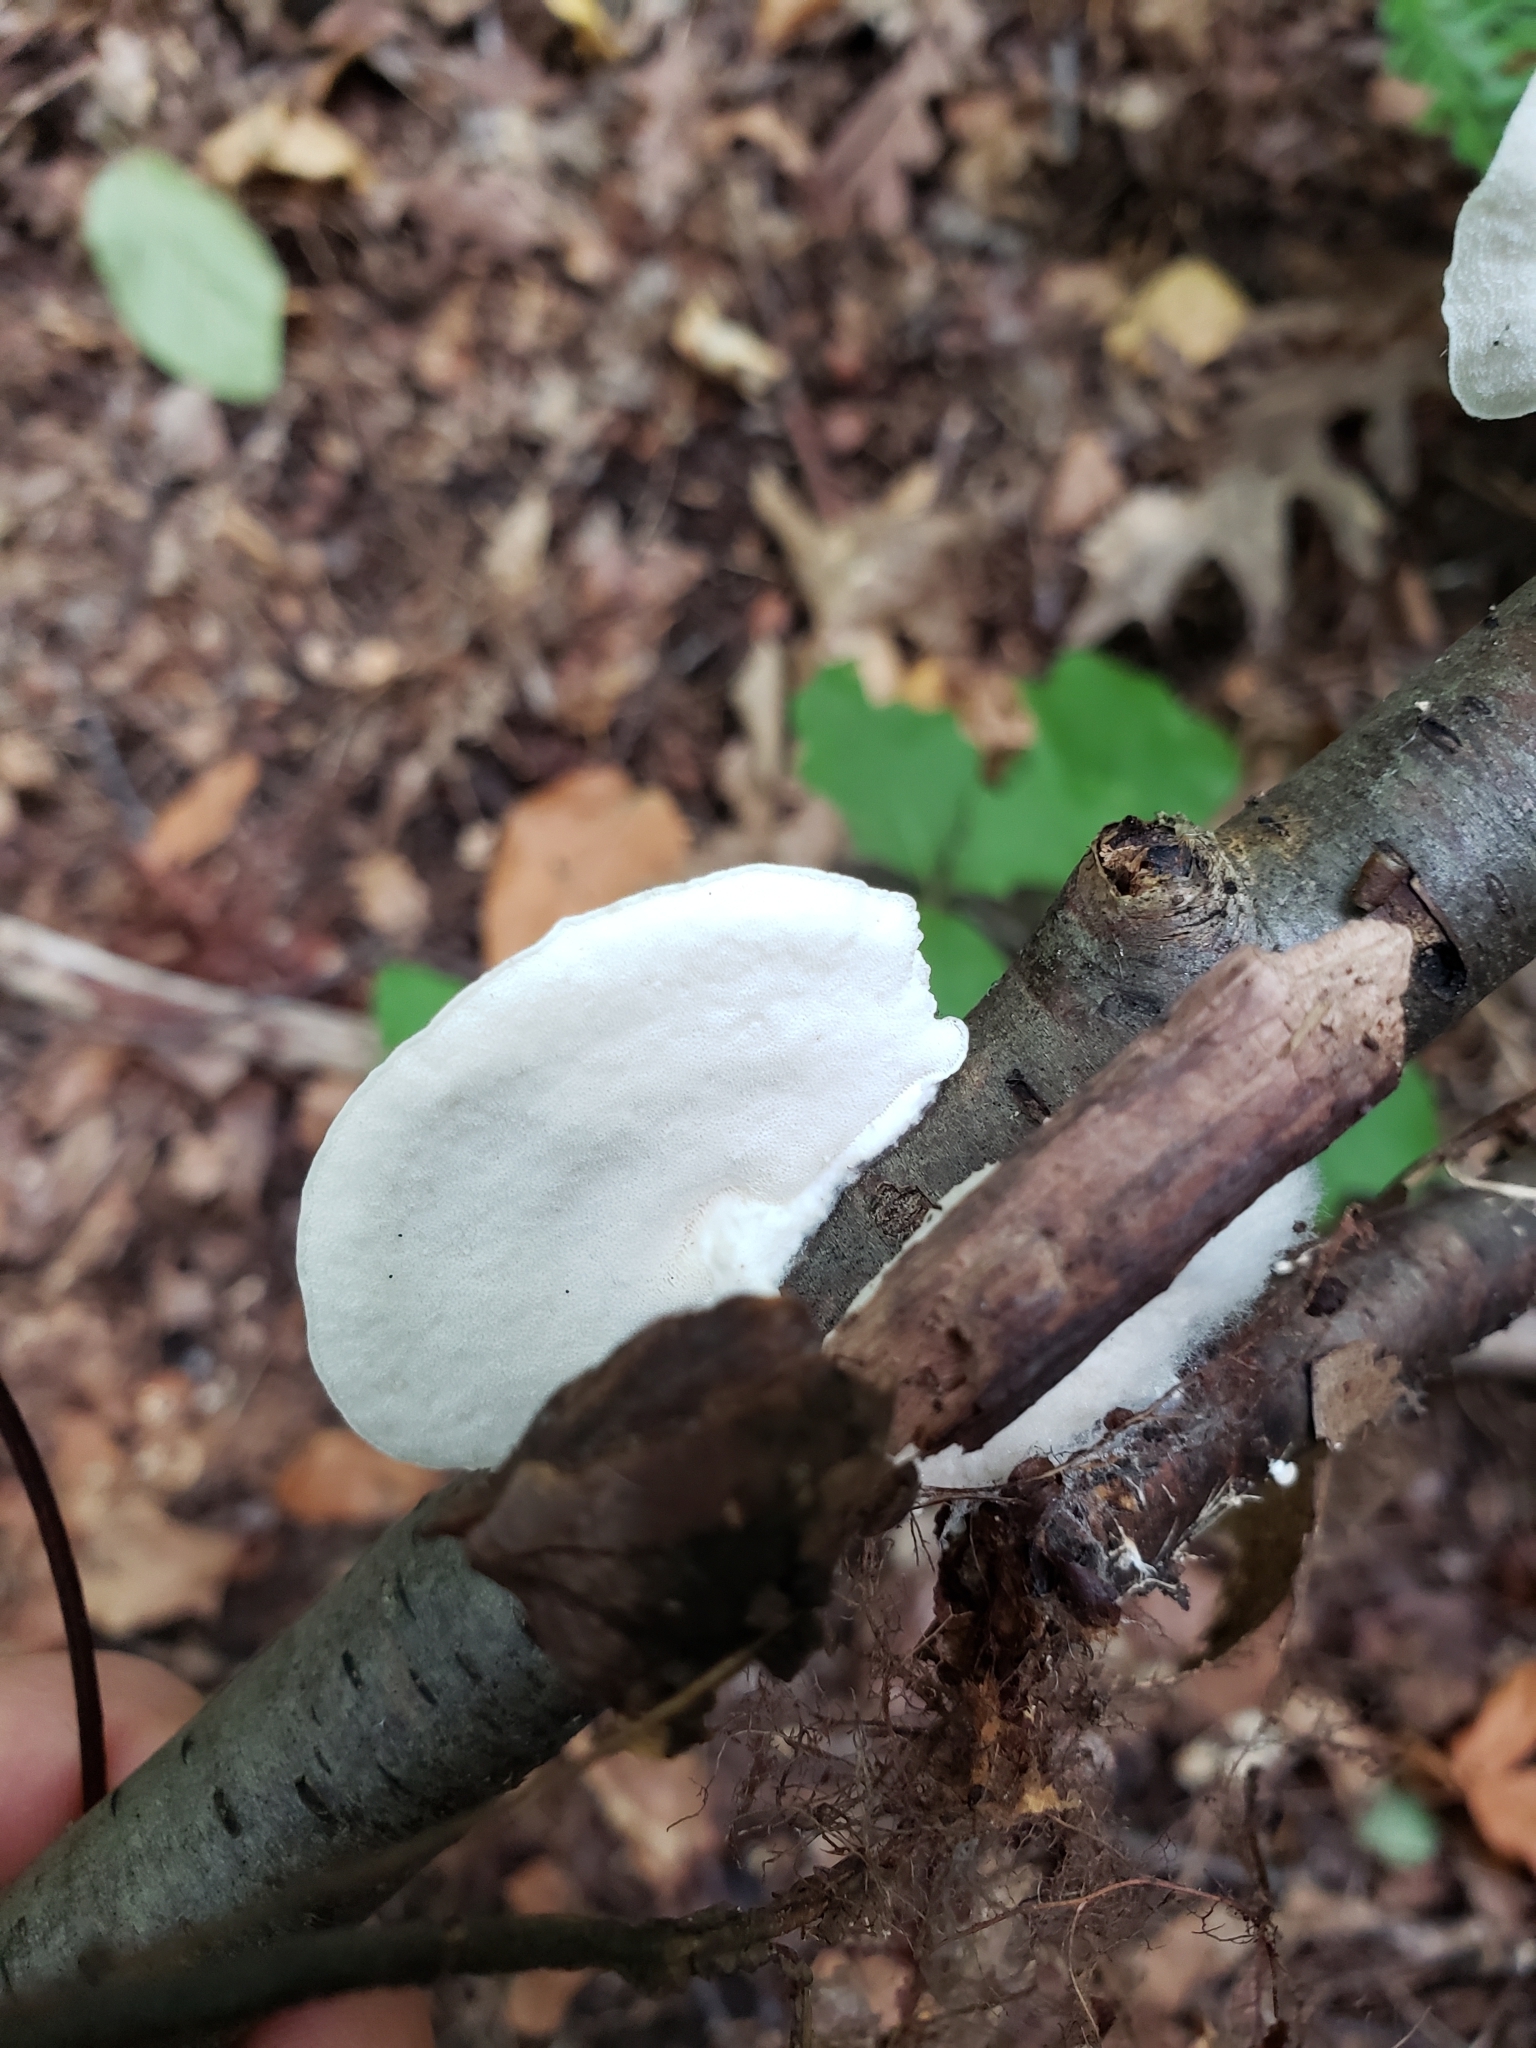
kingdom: Fungi
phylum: Basidiomycota
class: Agaricomycetes
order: Polyporales
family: Incrustoporiaceae
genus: Tyromyces
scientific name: Tyromyces chioneus
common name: White cheese polypore
